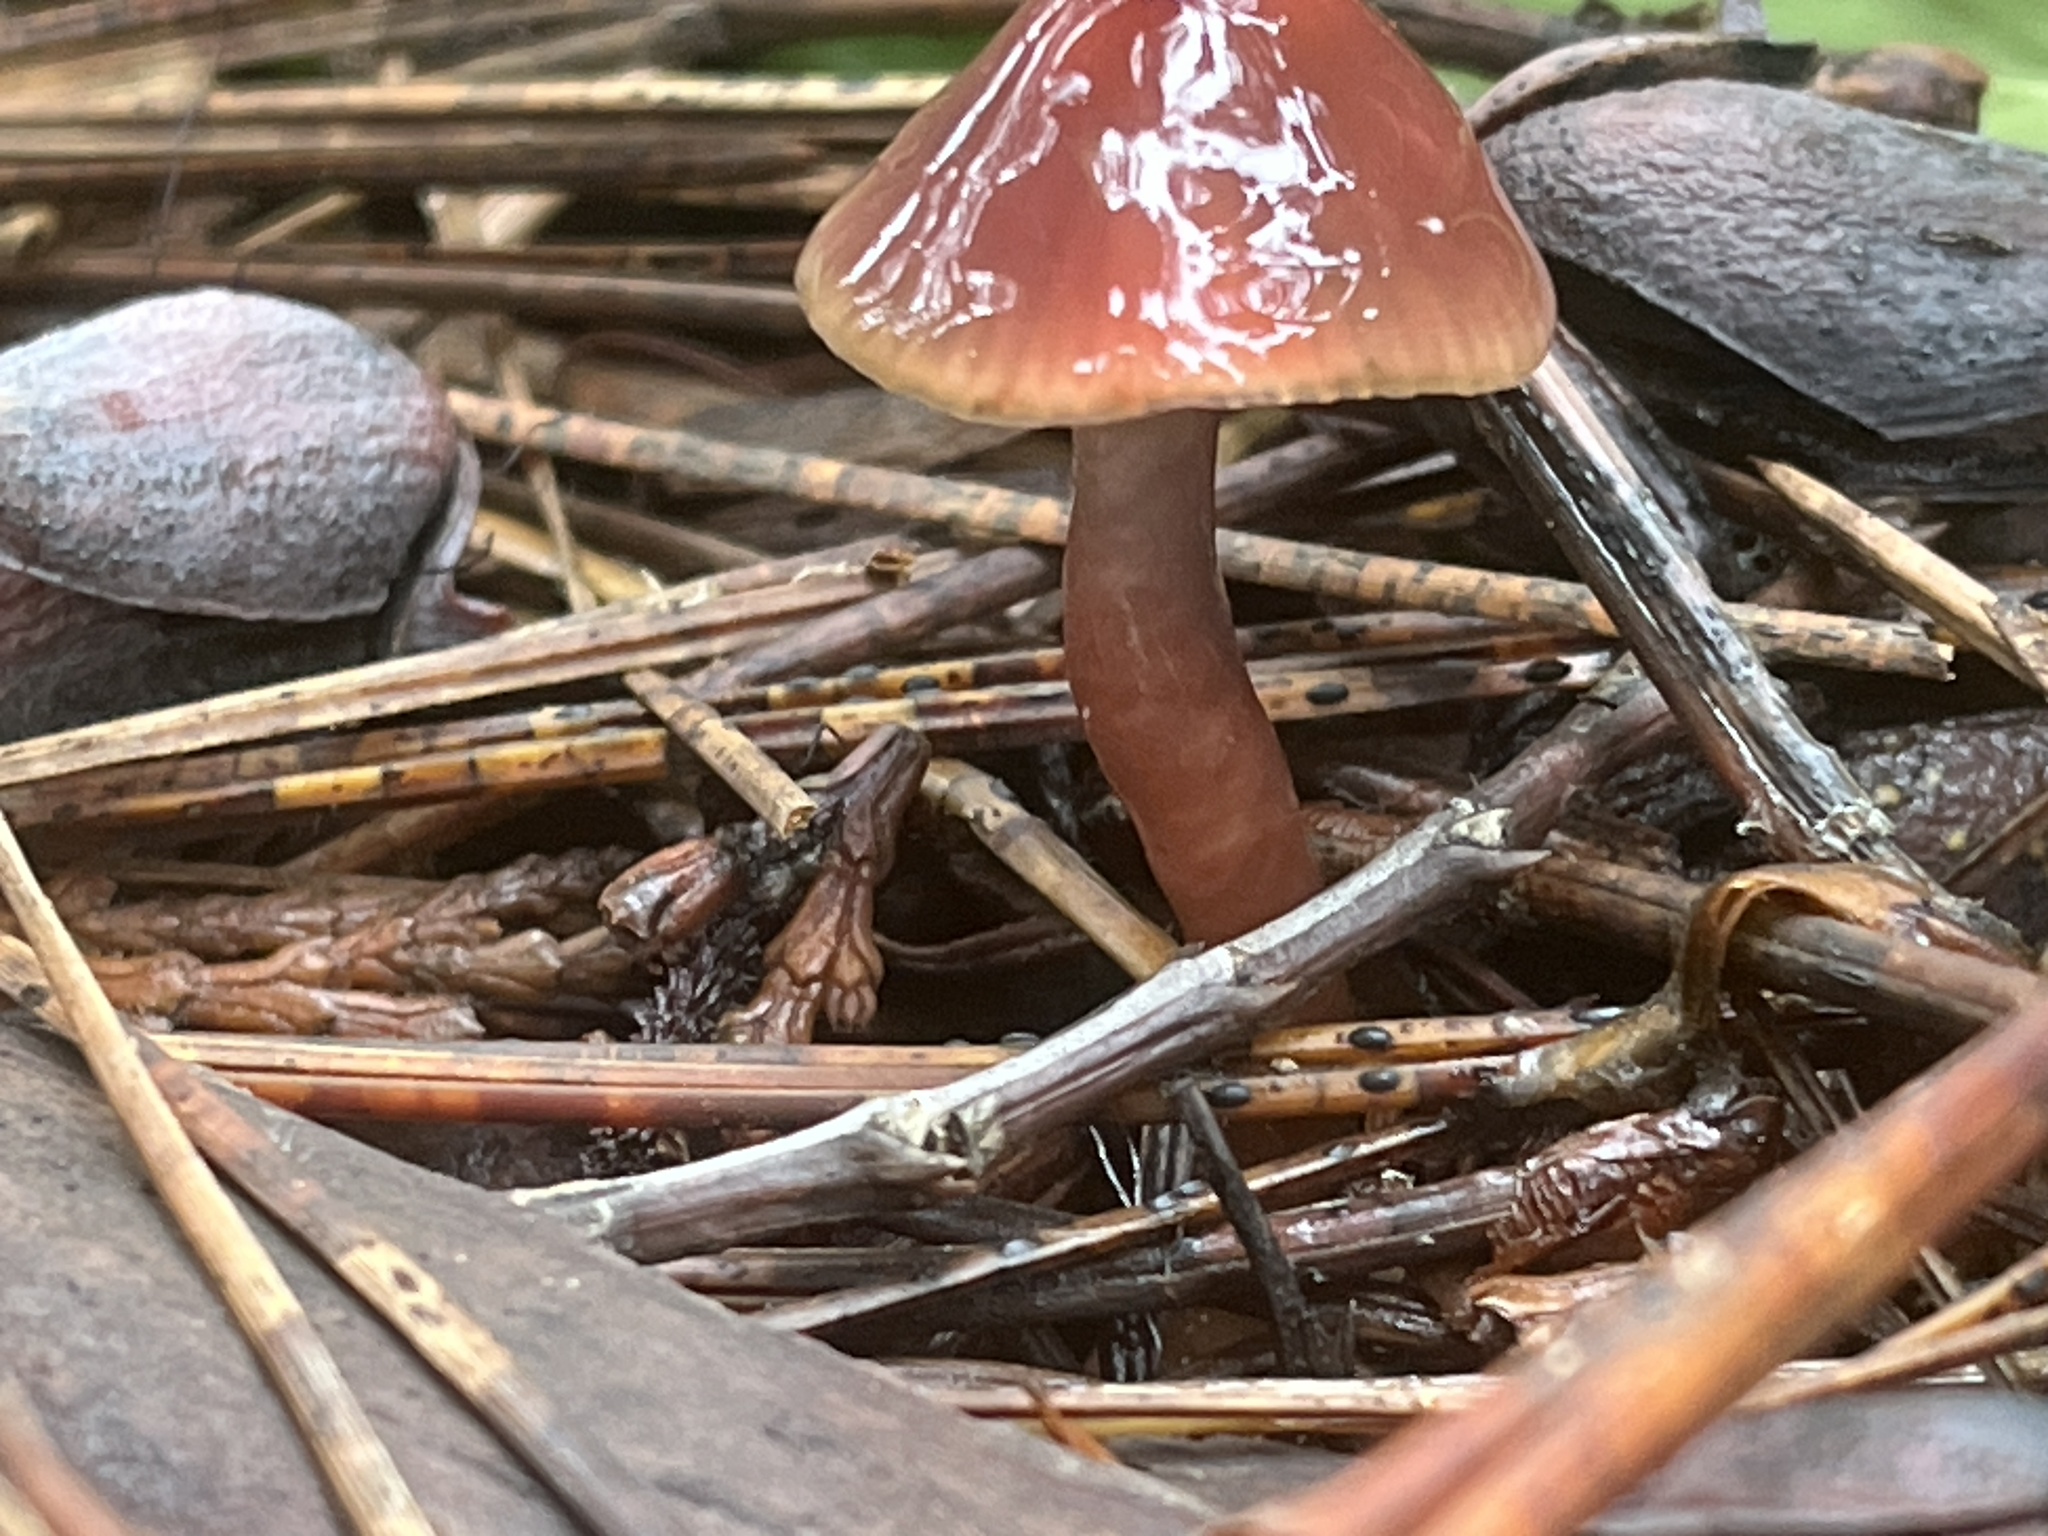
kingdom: Fungi
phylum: Basidiomycota
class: Agaricomycetes
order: Agaricales
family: Hygrophoraceae
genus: Gliophorus
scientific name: Gliophorus psittacinus
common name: Parrot wax-cap
